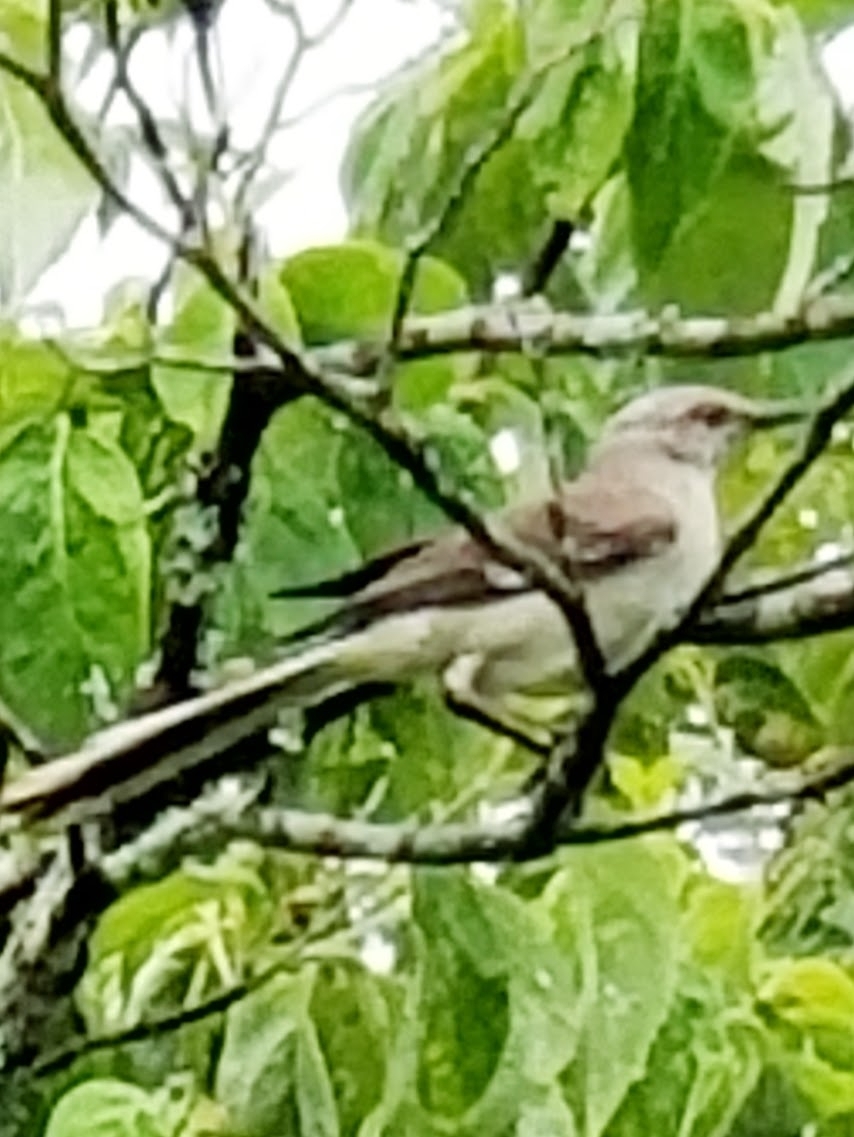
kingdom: Animalia
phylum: Chordata
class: Aves
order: Passeriformes
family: Mimidae
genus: Mimus
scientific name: Mimus polyglottos
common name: Northern mockingbird
